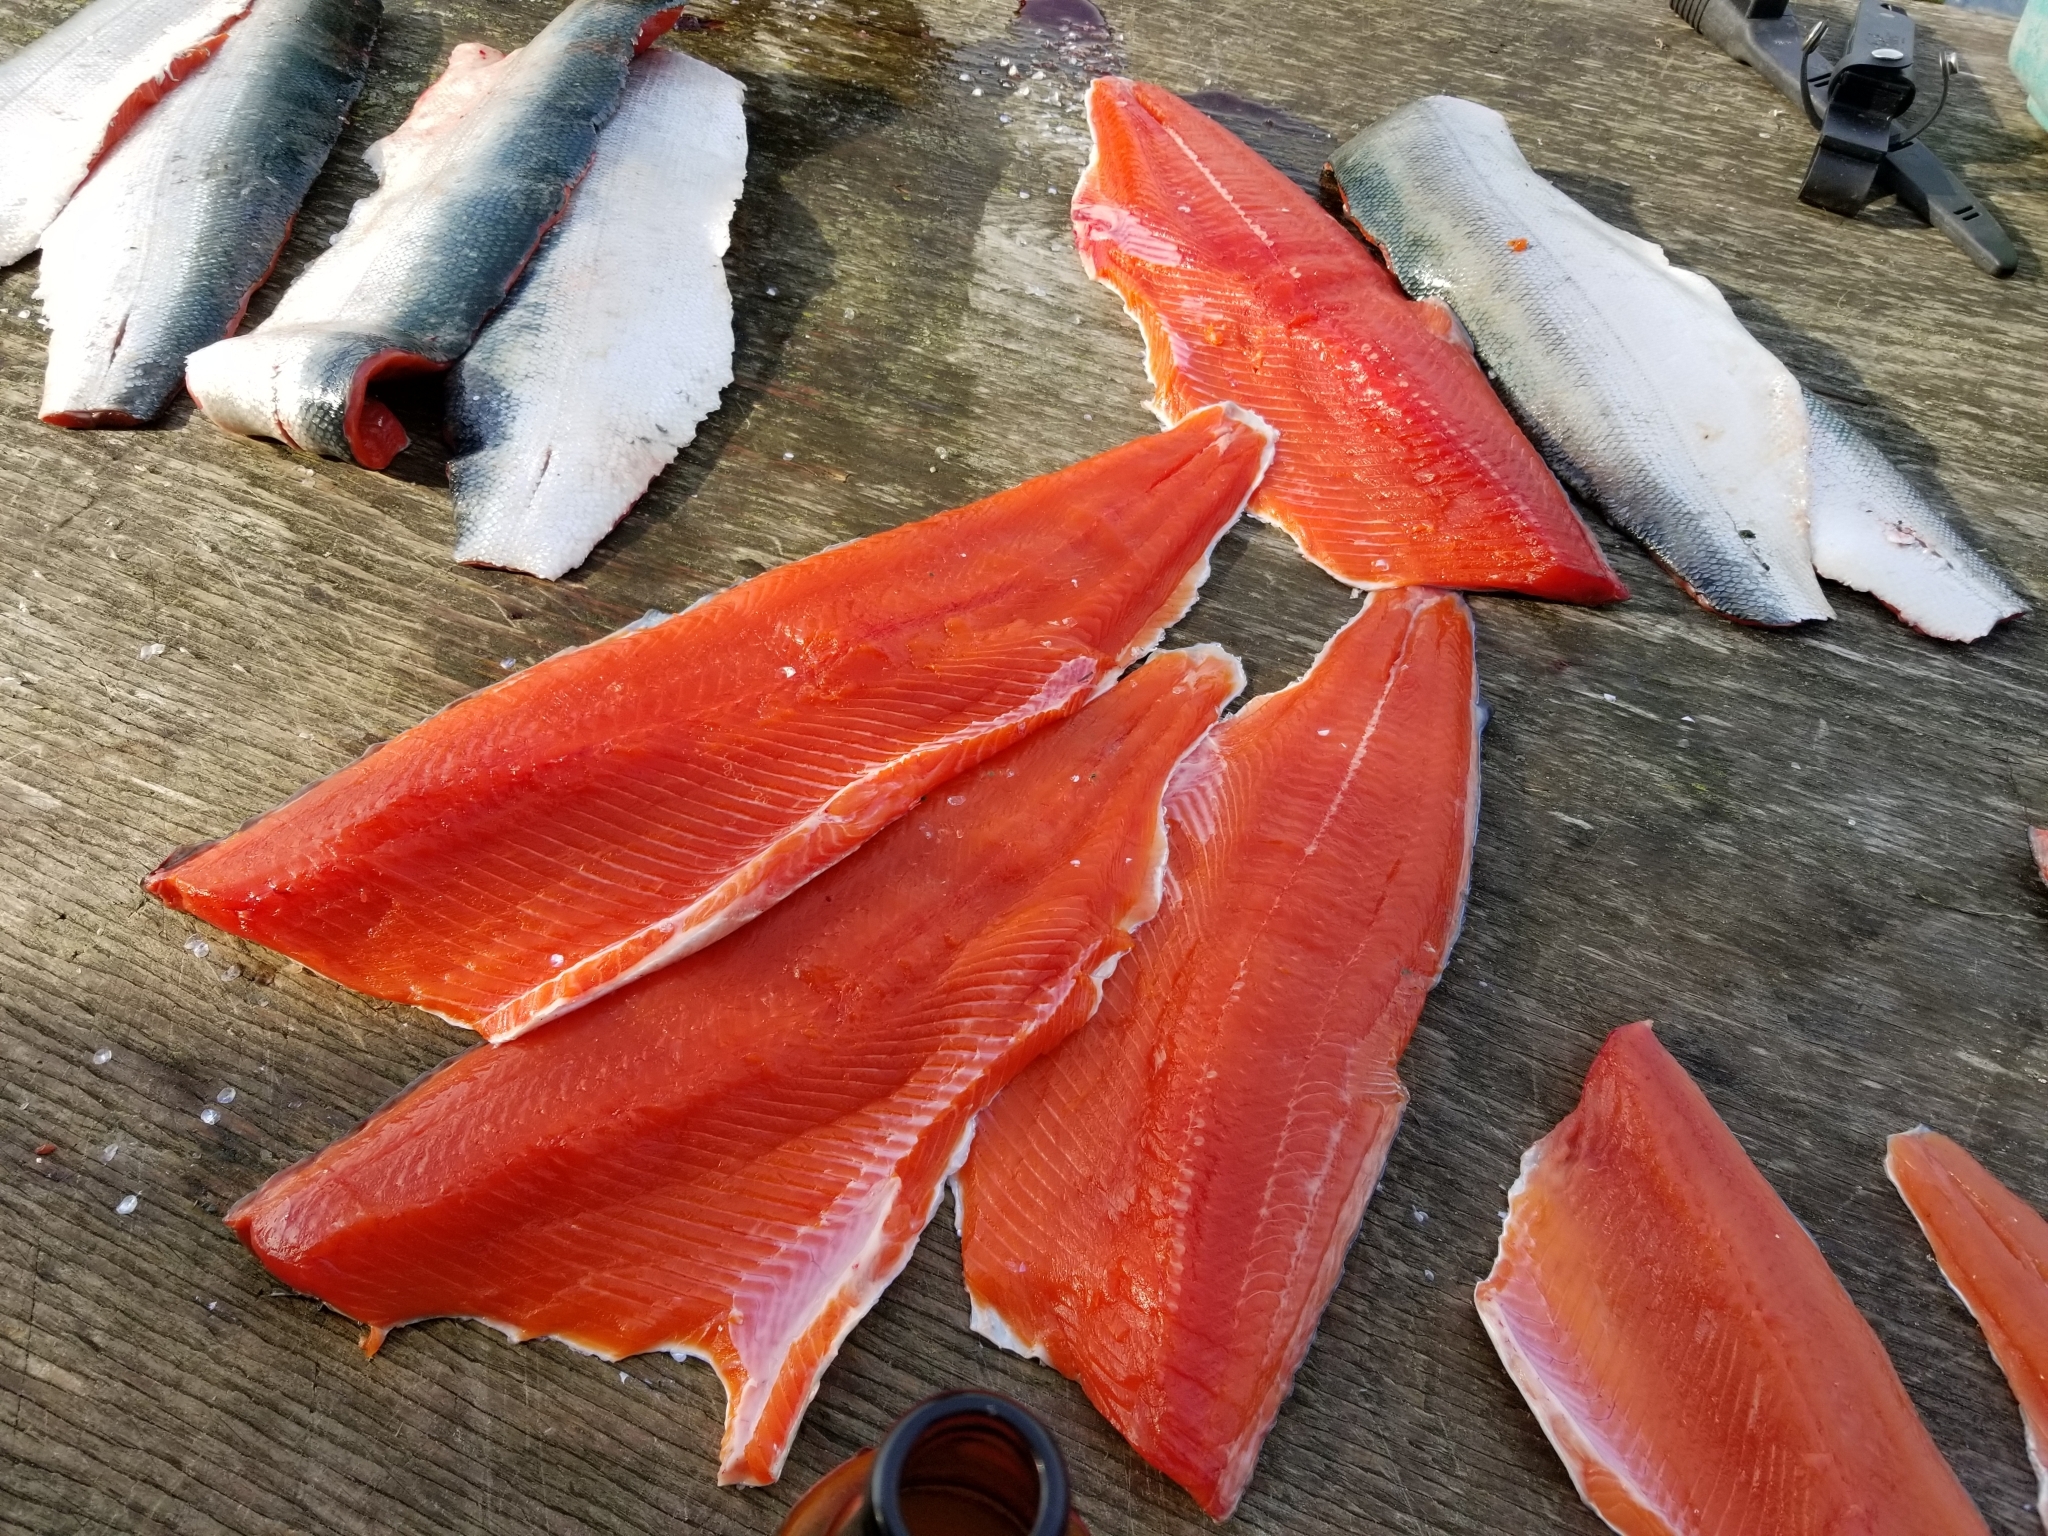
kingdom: Animalia
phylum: Chordata
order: Salmoniformes
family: Salmonidae
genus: Oncorhynchus
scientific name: Oncorhynchus nerka
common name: Sockeye salmon
